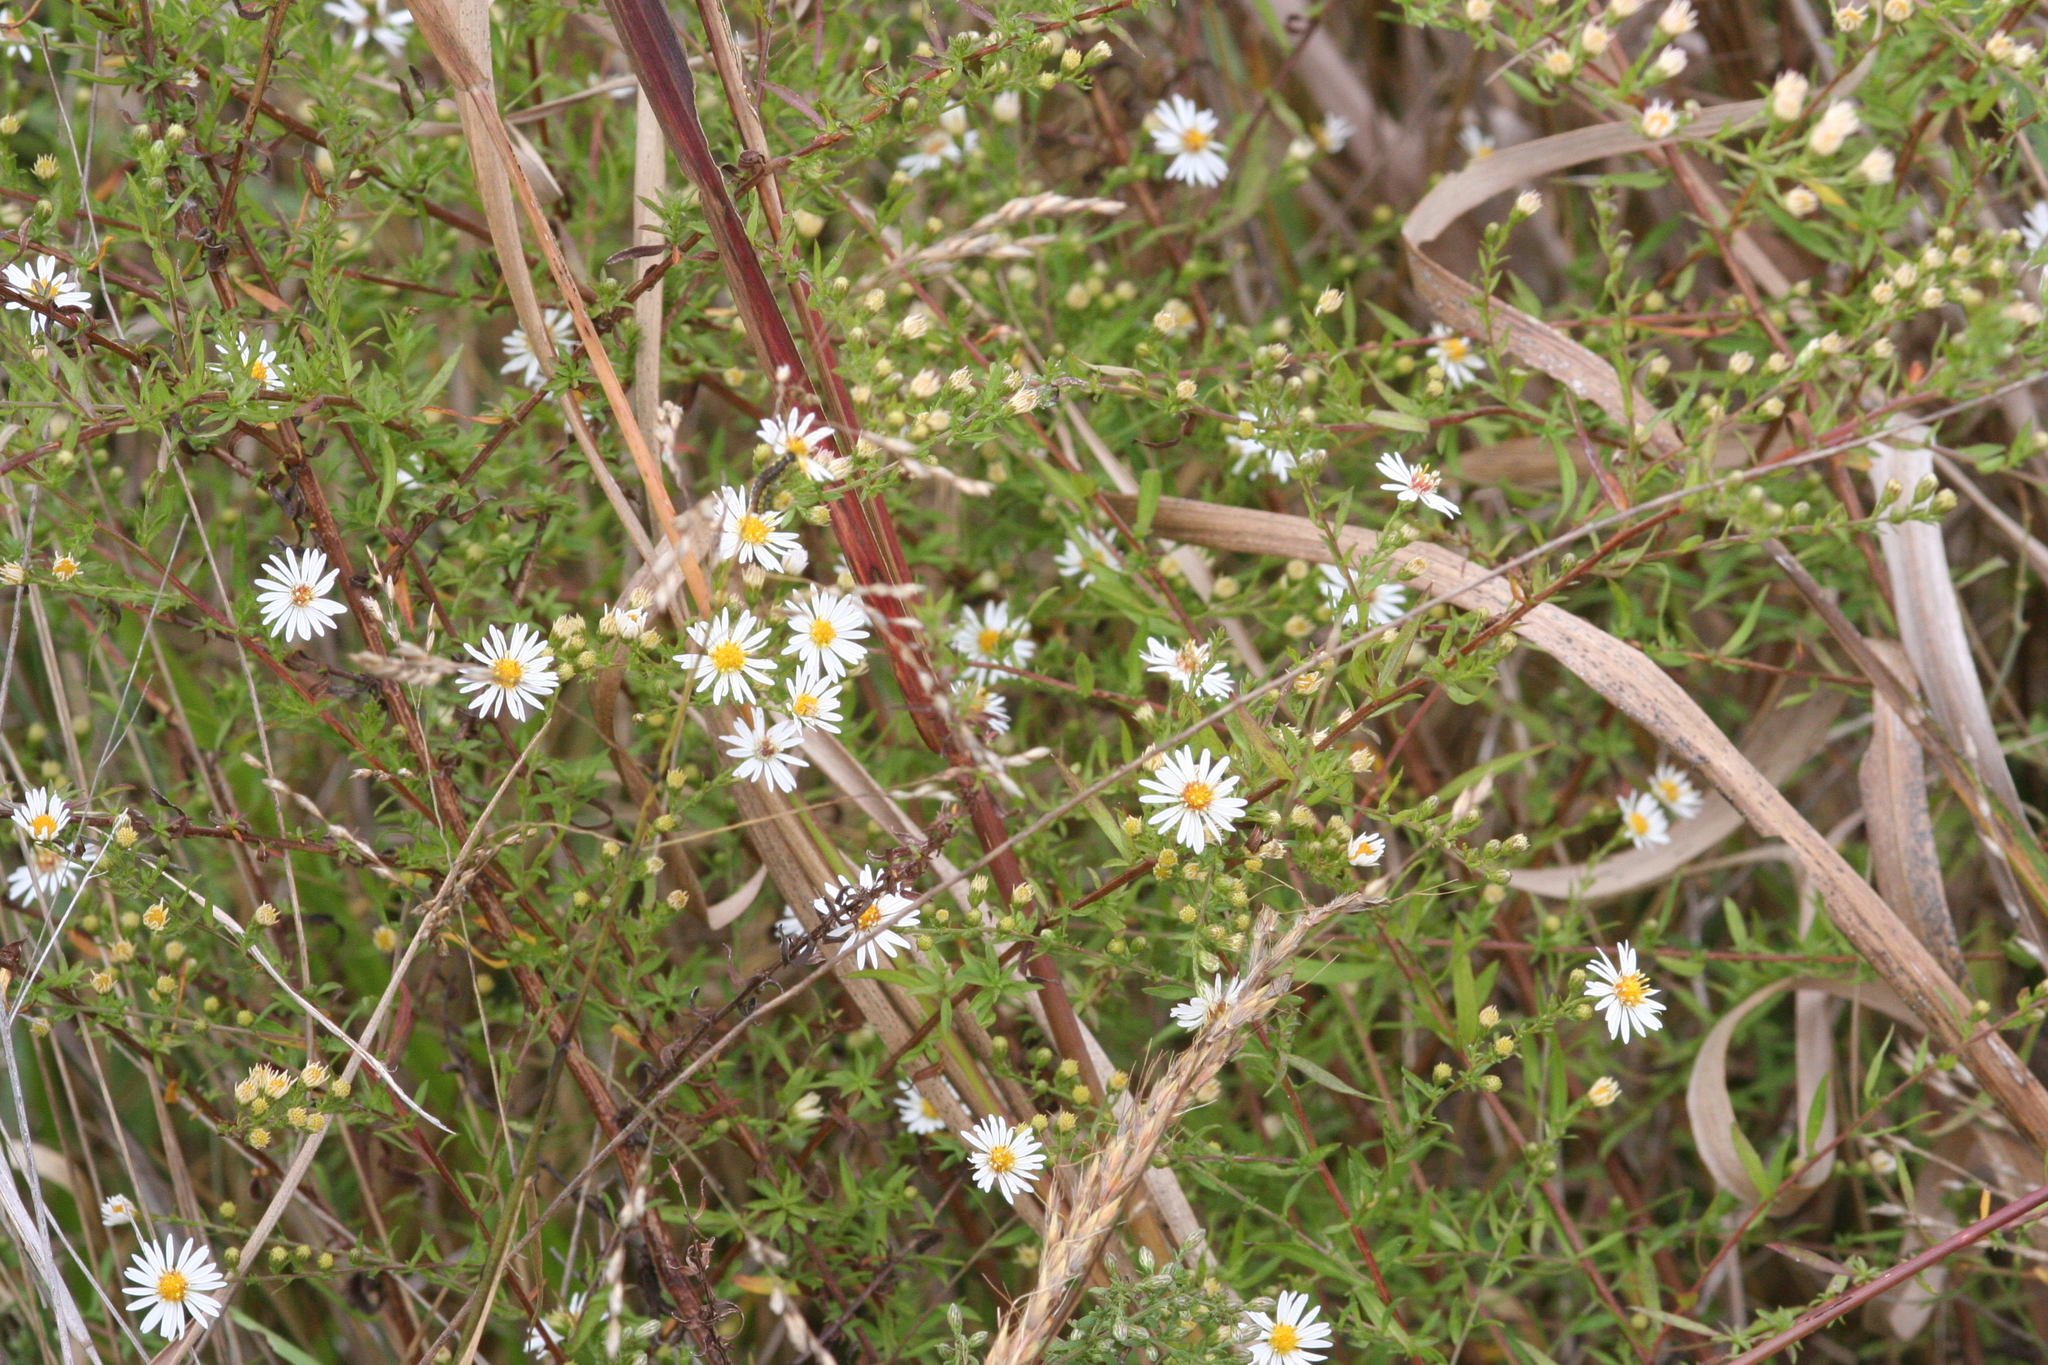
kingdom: Plantae
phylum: Tracheophyta
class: Magnoliopsida
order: Asterales
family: Asteraceae
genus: Symphyotrichum
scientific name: Symphyotrichum pilosum
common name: Awl aster
